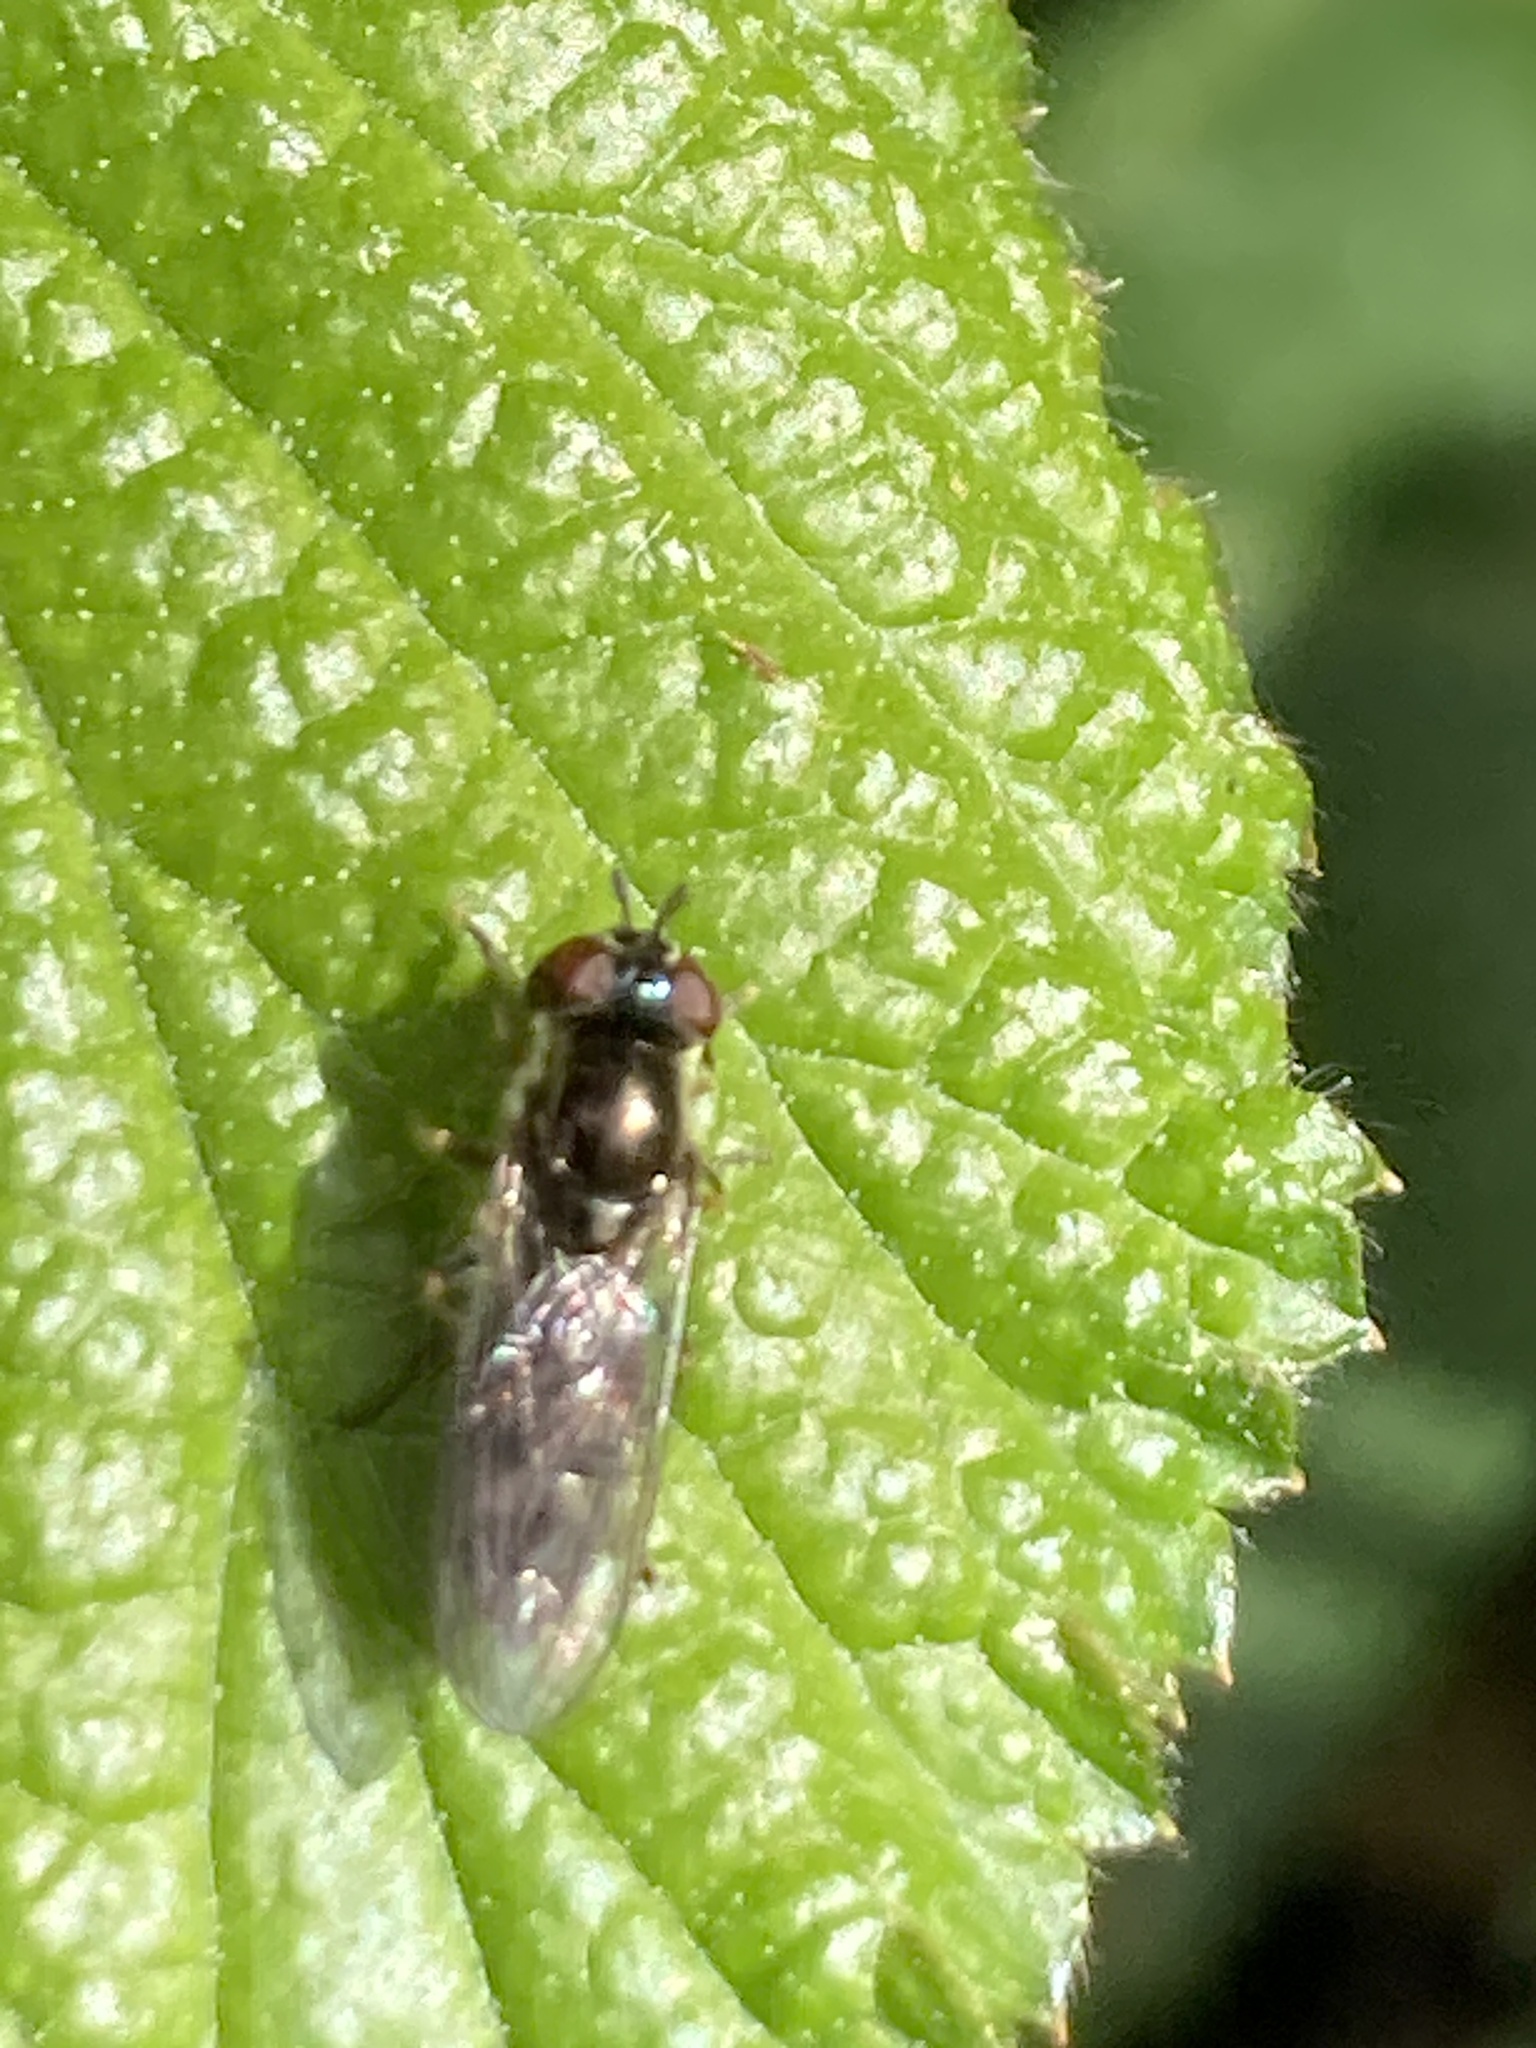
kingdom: Animalia
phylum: Arthropoda
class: Insecta
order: Diptera
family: Syrphidae
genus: Platycheirus
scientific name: Platycheirus albimanus
